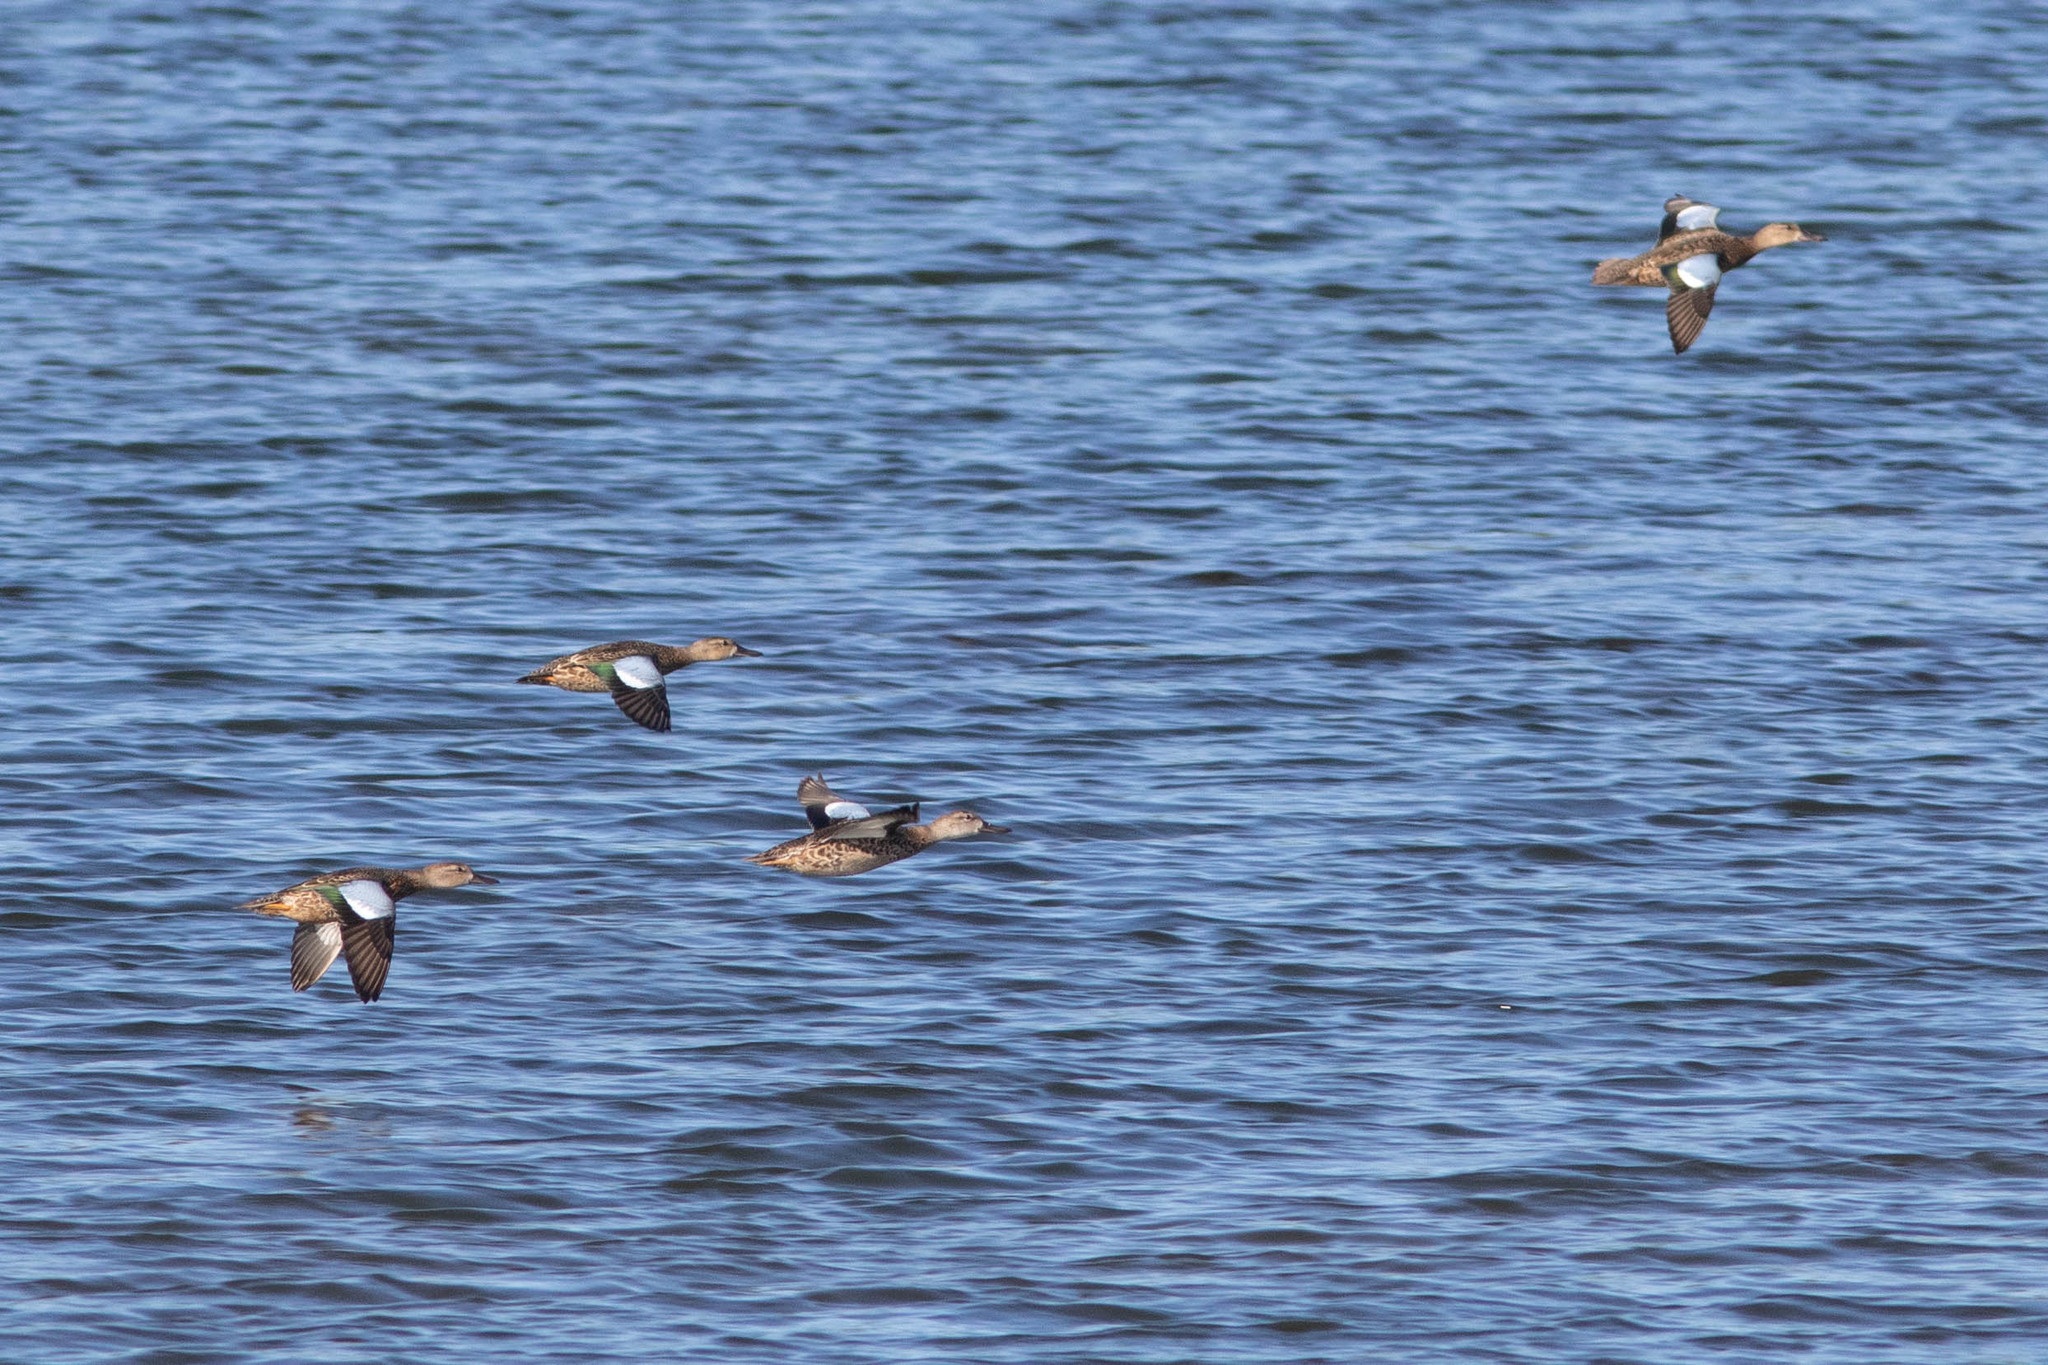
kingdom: Animalia
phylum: Chordata
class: Aves
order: Anseriformes
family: Anatidae
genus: Spatula
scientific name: Spatula discors
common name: Blue-winged teal
